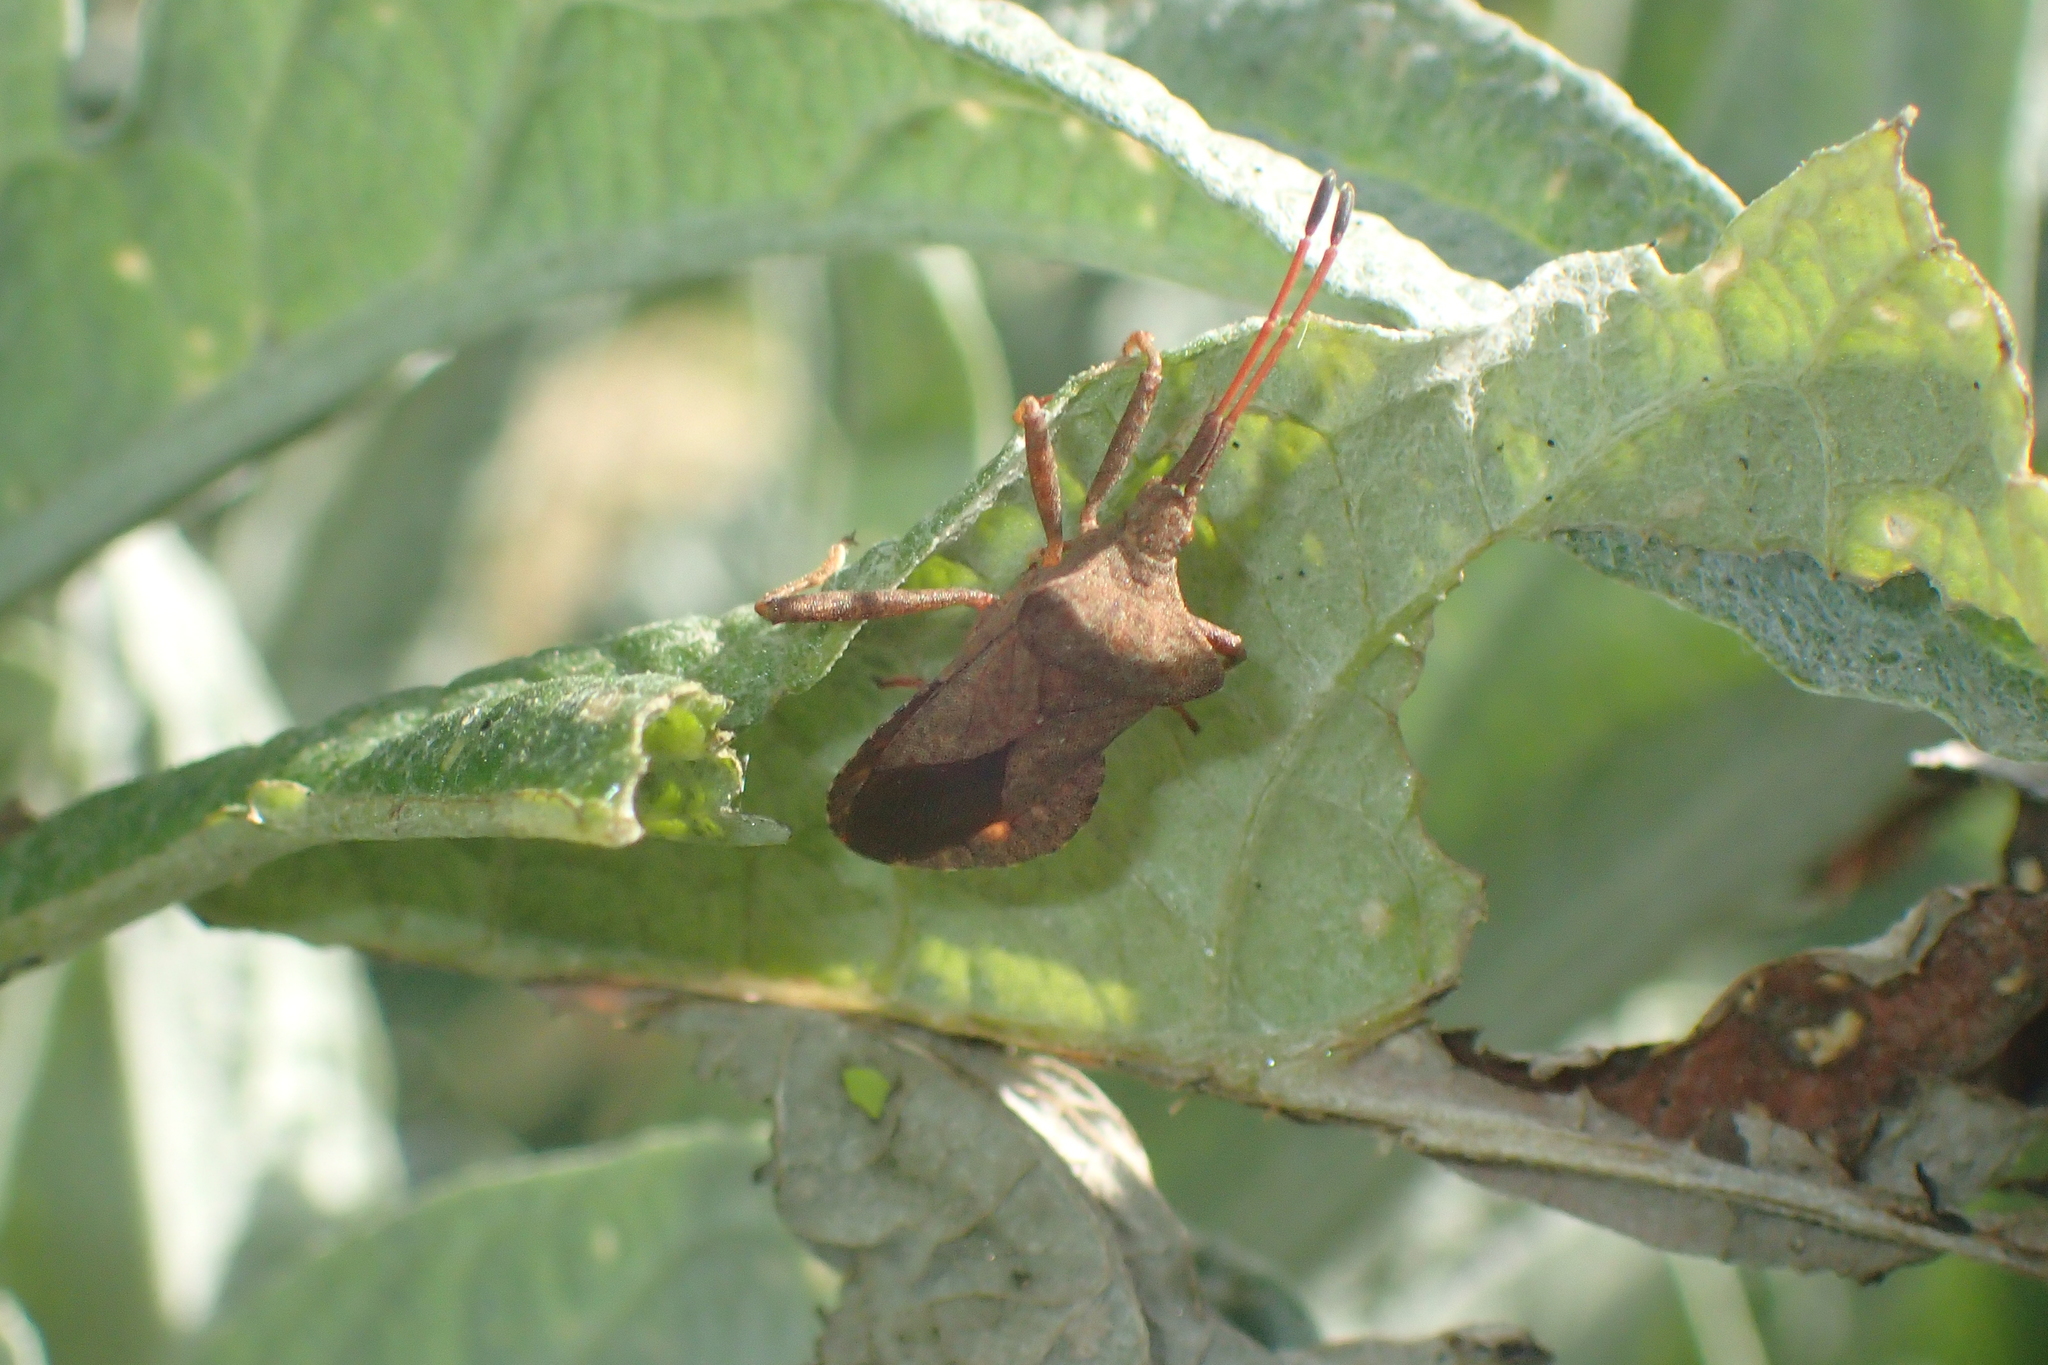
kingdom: Animalia
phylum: Arthropoda
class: Insecta
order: Hemiptera
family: Coreidae
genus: Coreus
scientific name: Coreus marginatus
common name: Dock bug
